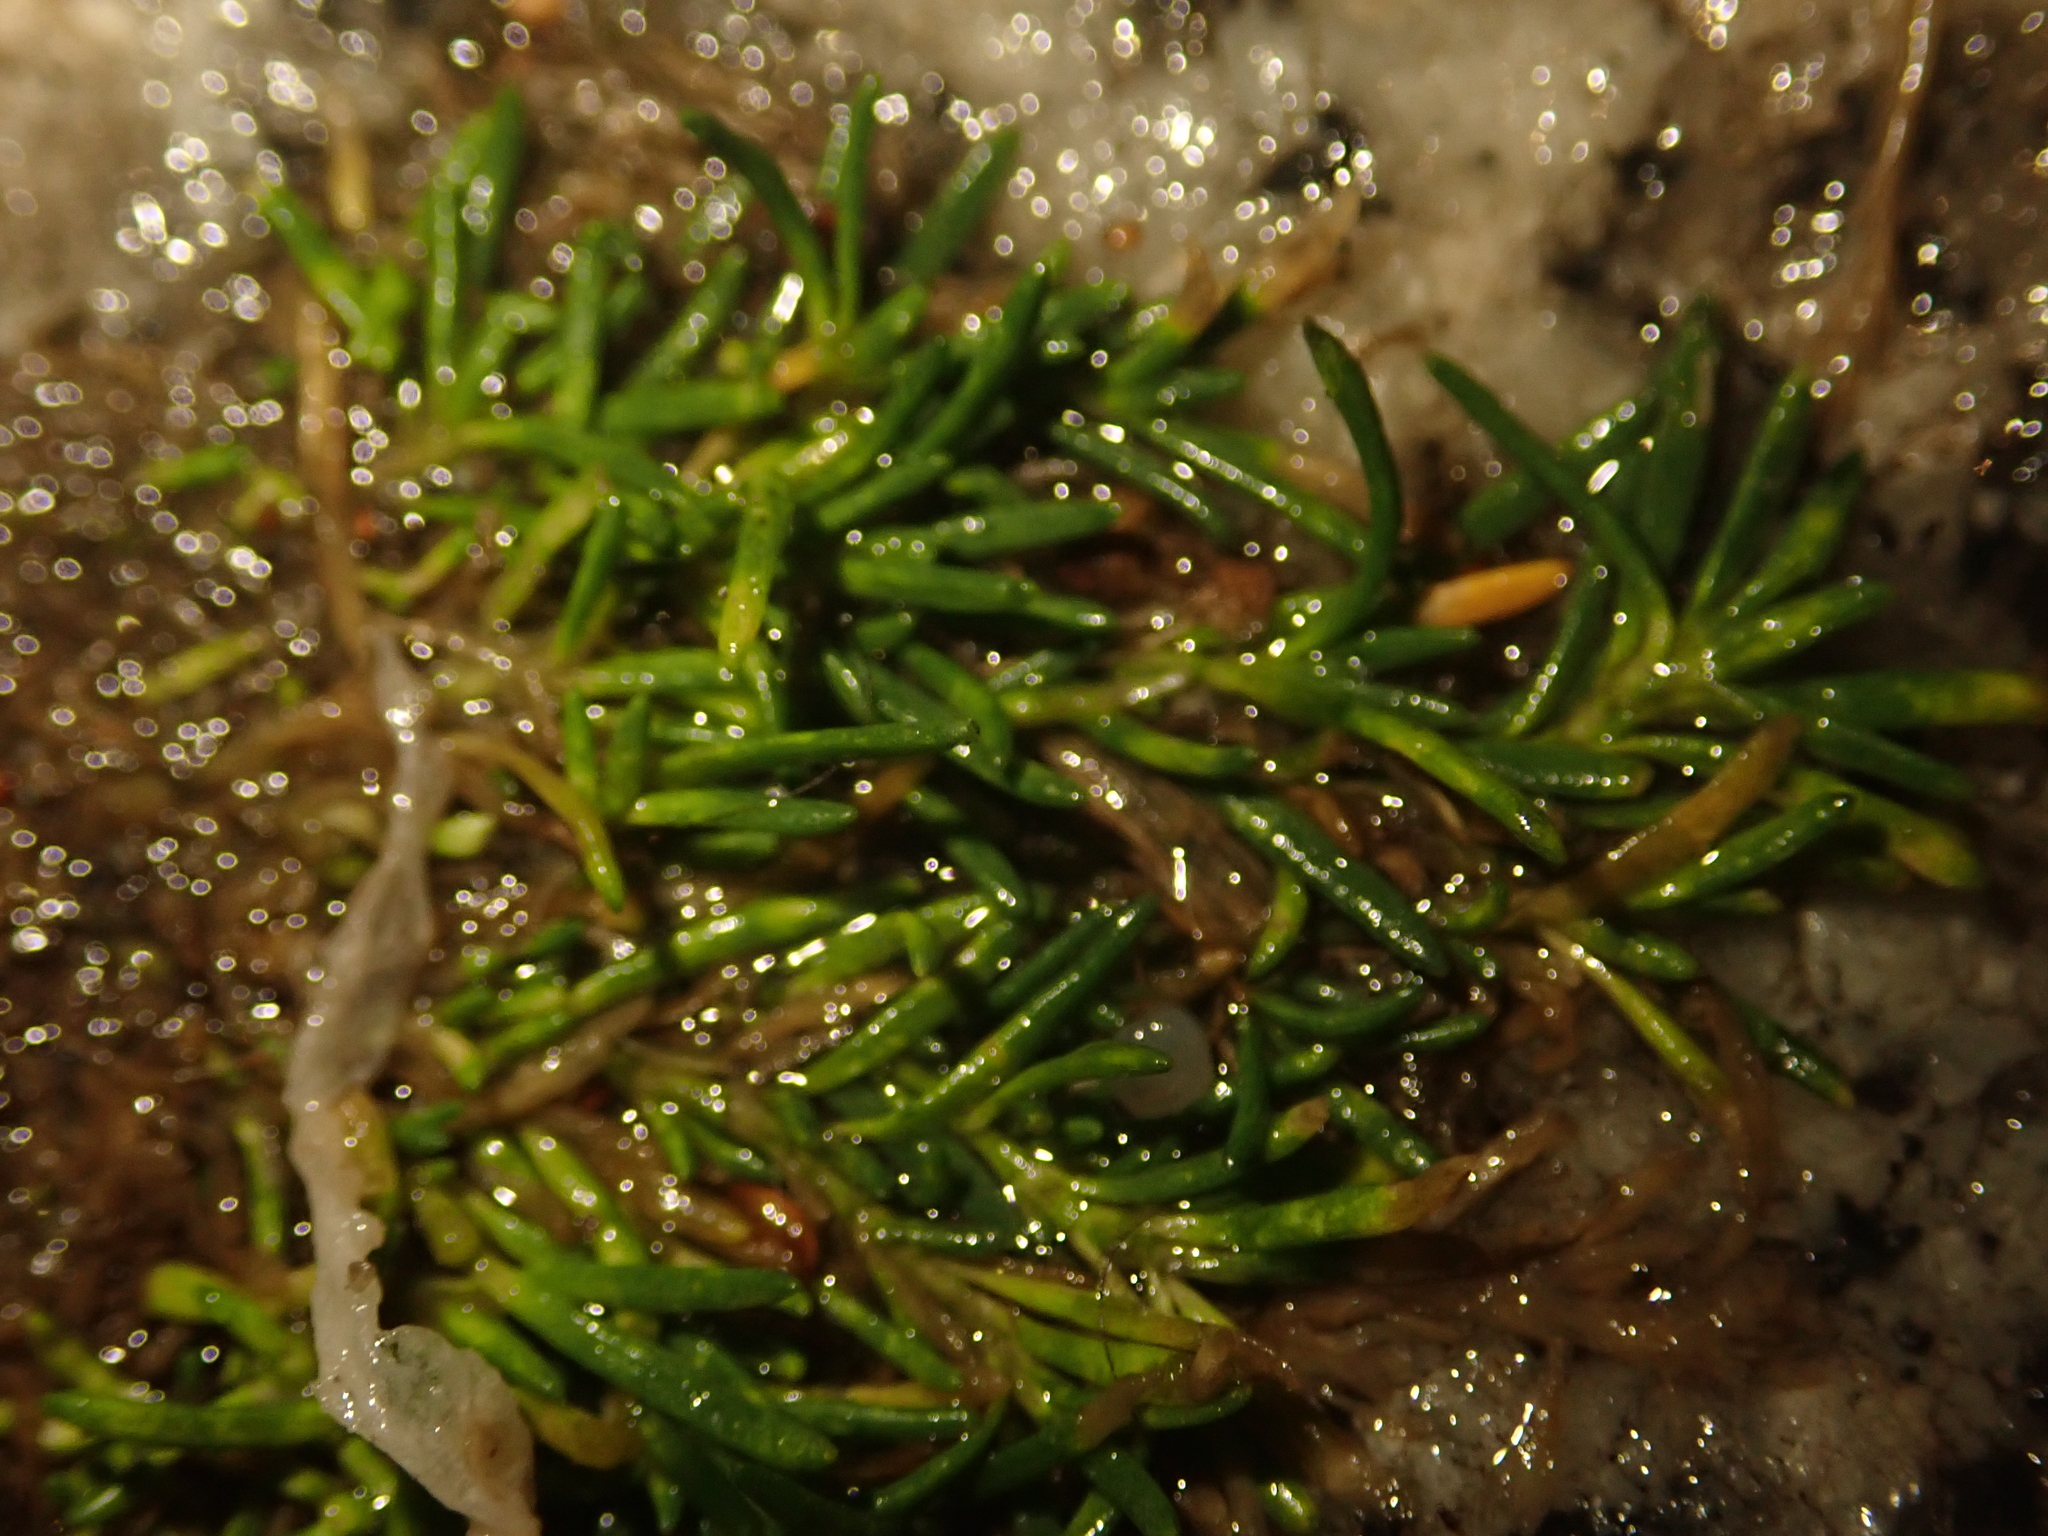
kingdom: Plantae
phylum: Tracheophyta
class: Magnoliopsida
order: Caryophyllales
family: Caryophyllaceae
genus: Sagina
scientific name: Sagina procumbens
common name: Procumbent pearlwort
